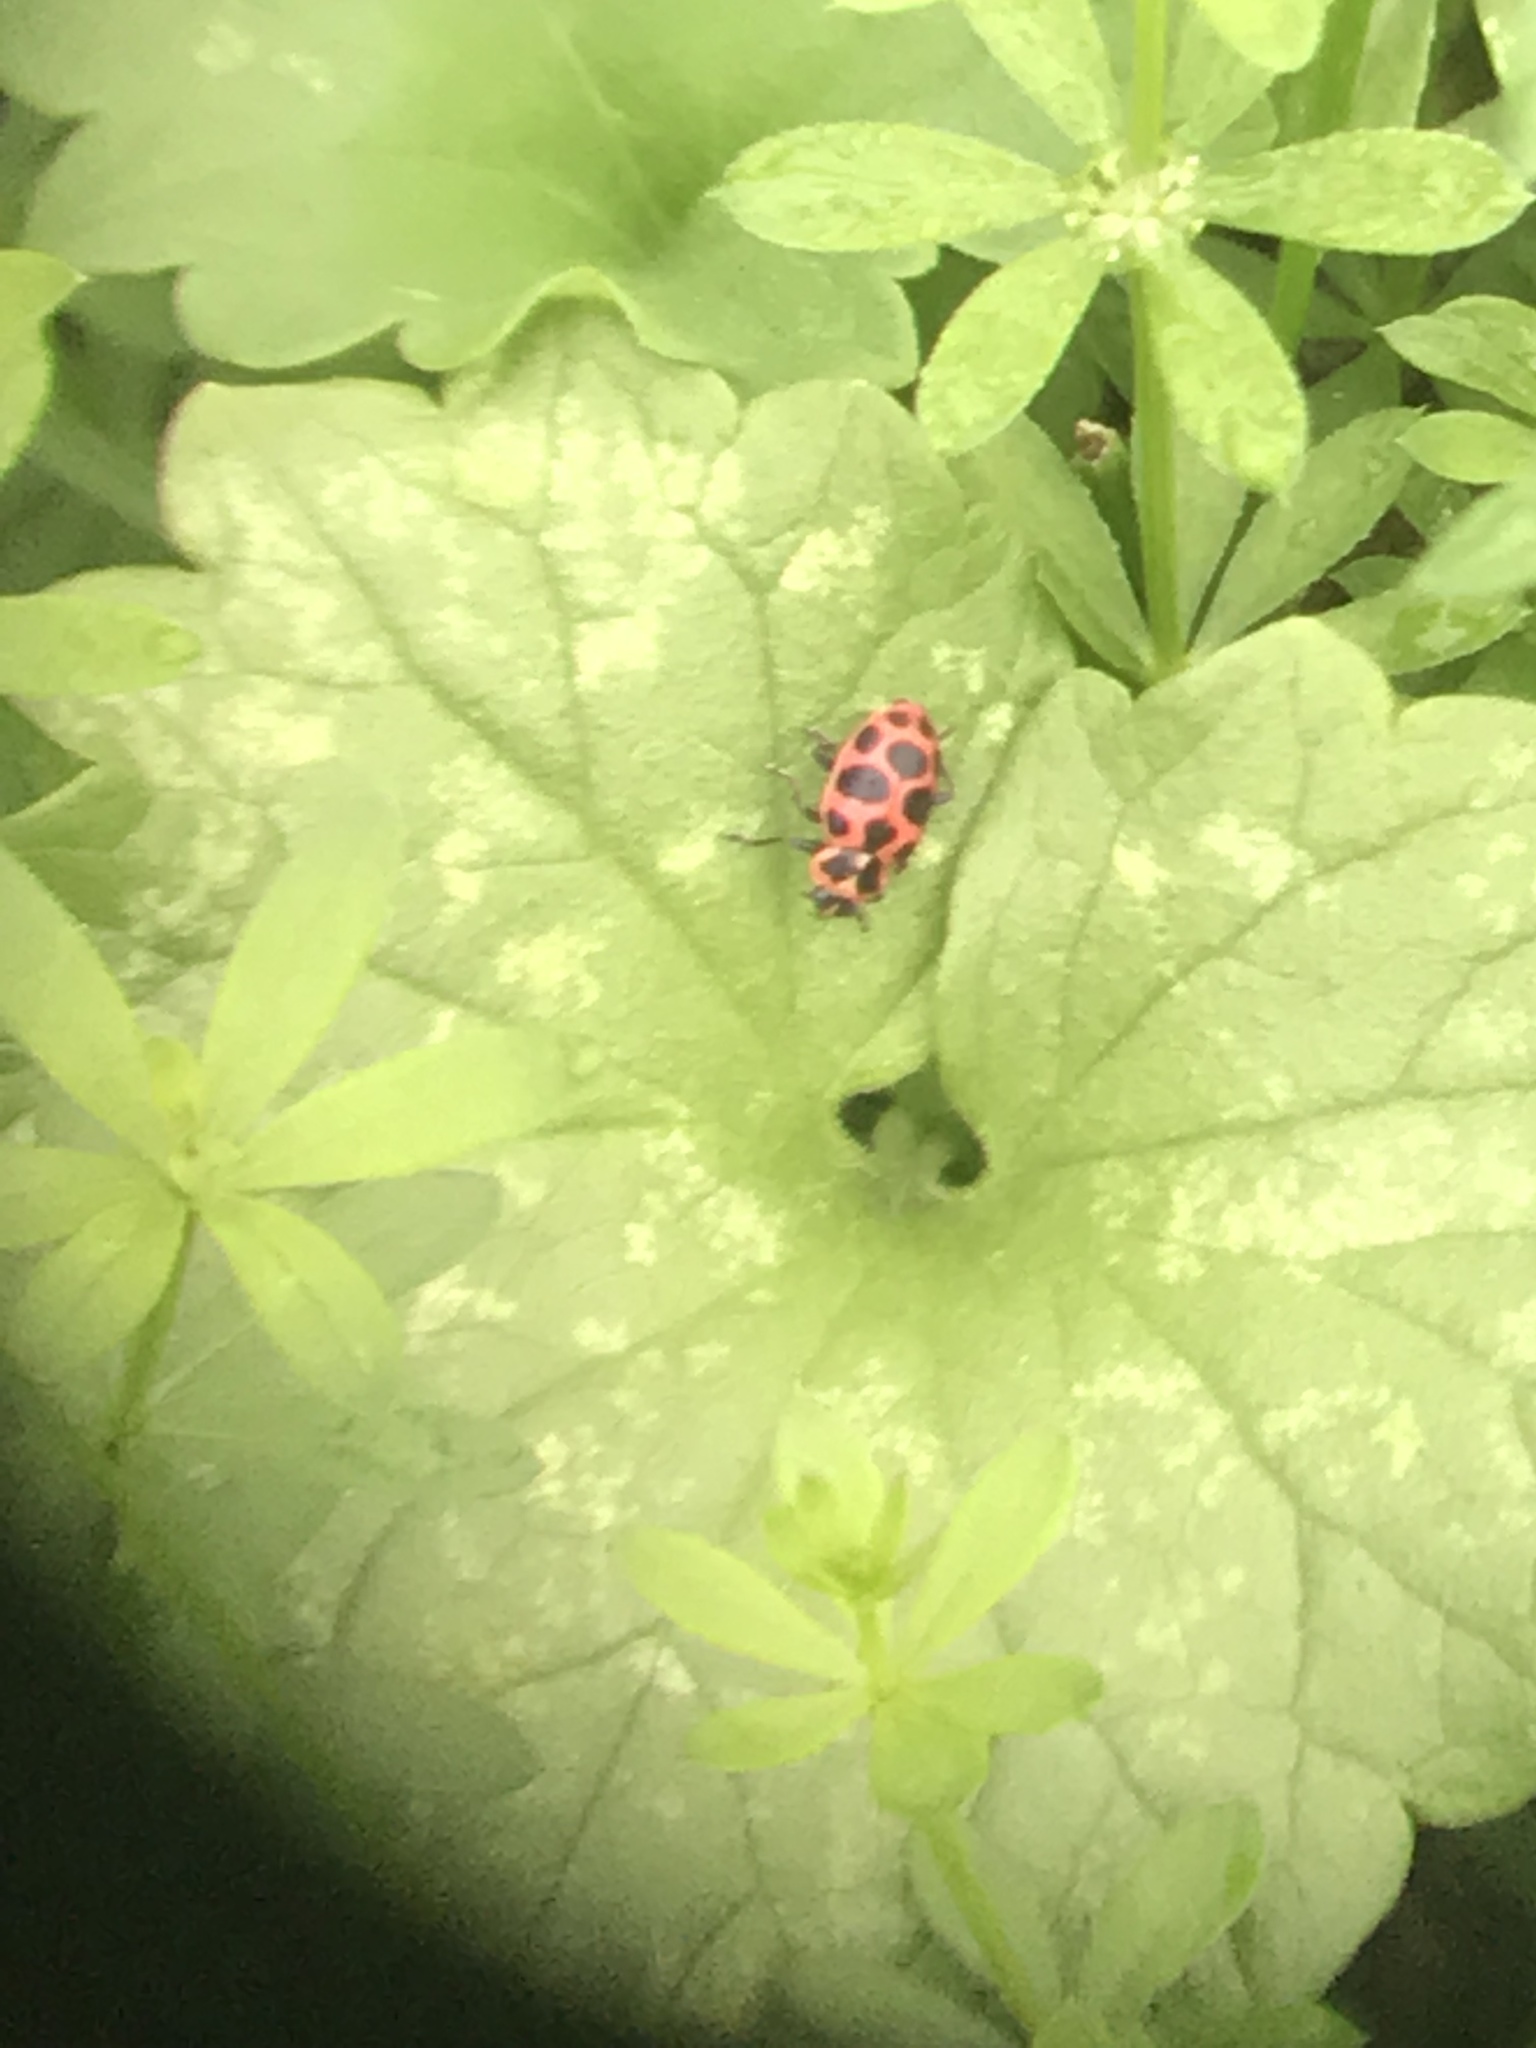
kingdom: Animalia
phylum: Arthropoda
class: Insecta
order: Coleoptera
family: Coccinellidae
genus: Coleomegilla
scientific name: Coleomegilla maculata
